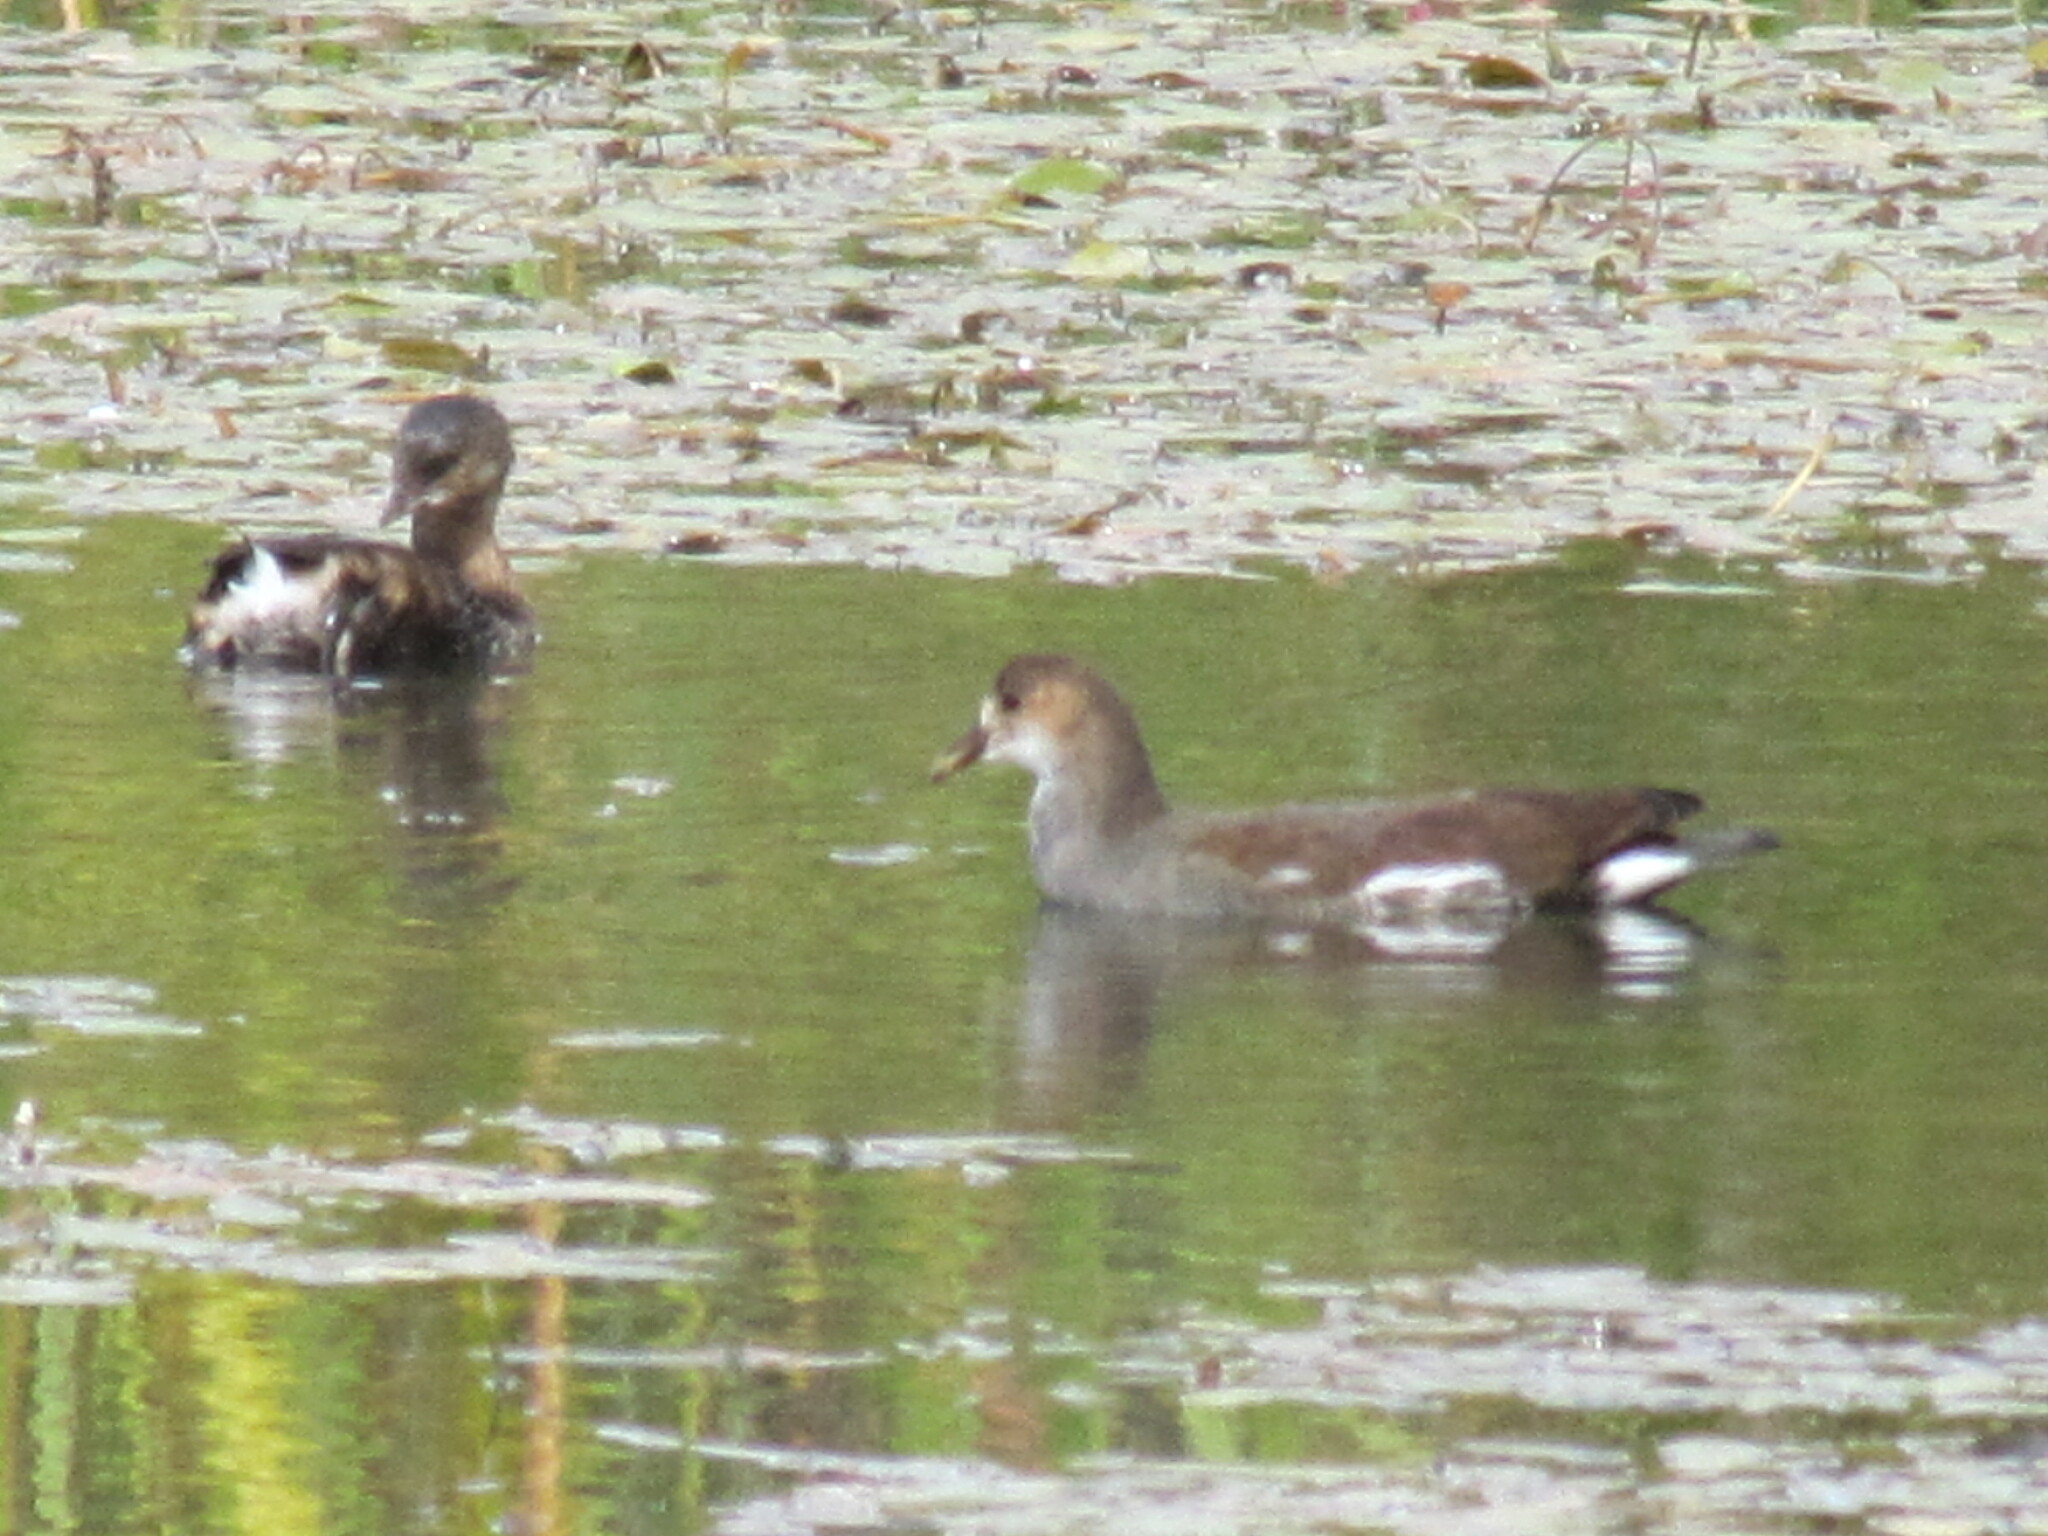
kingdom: Animalia
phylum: Chordata
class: Aves
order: Gruiformes
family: Rallidae
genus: Gallinula
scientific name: Gallinula chloropus
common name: Common moorhen
